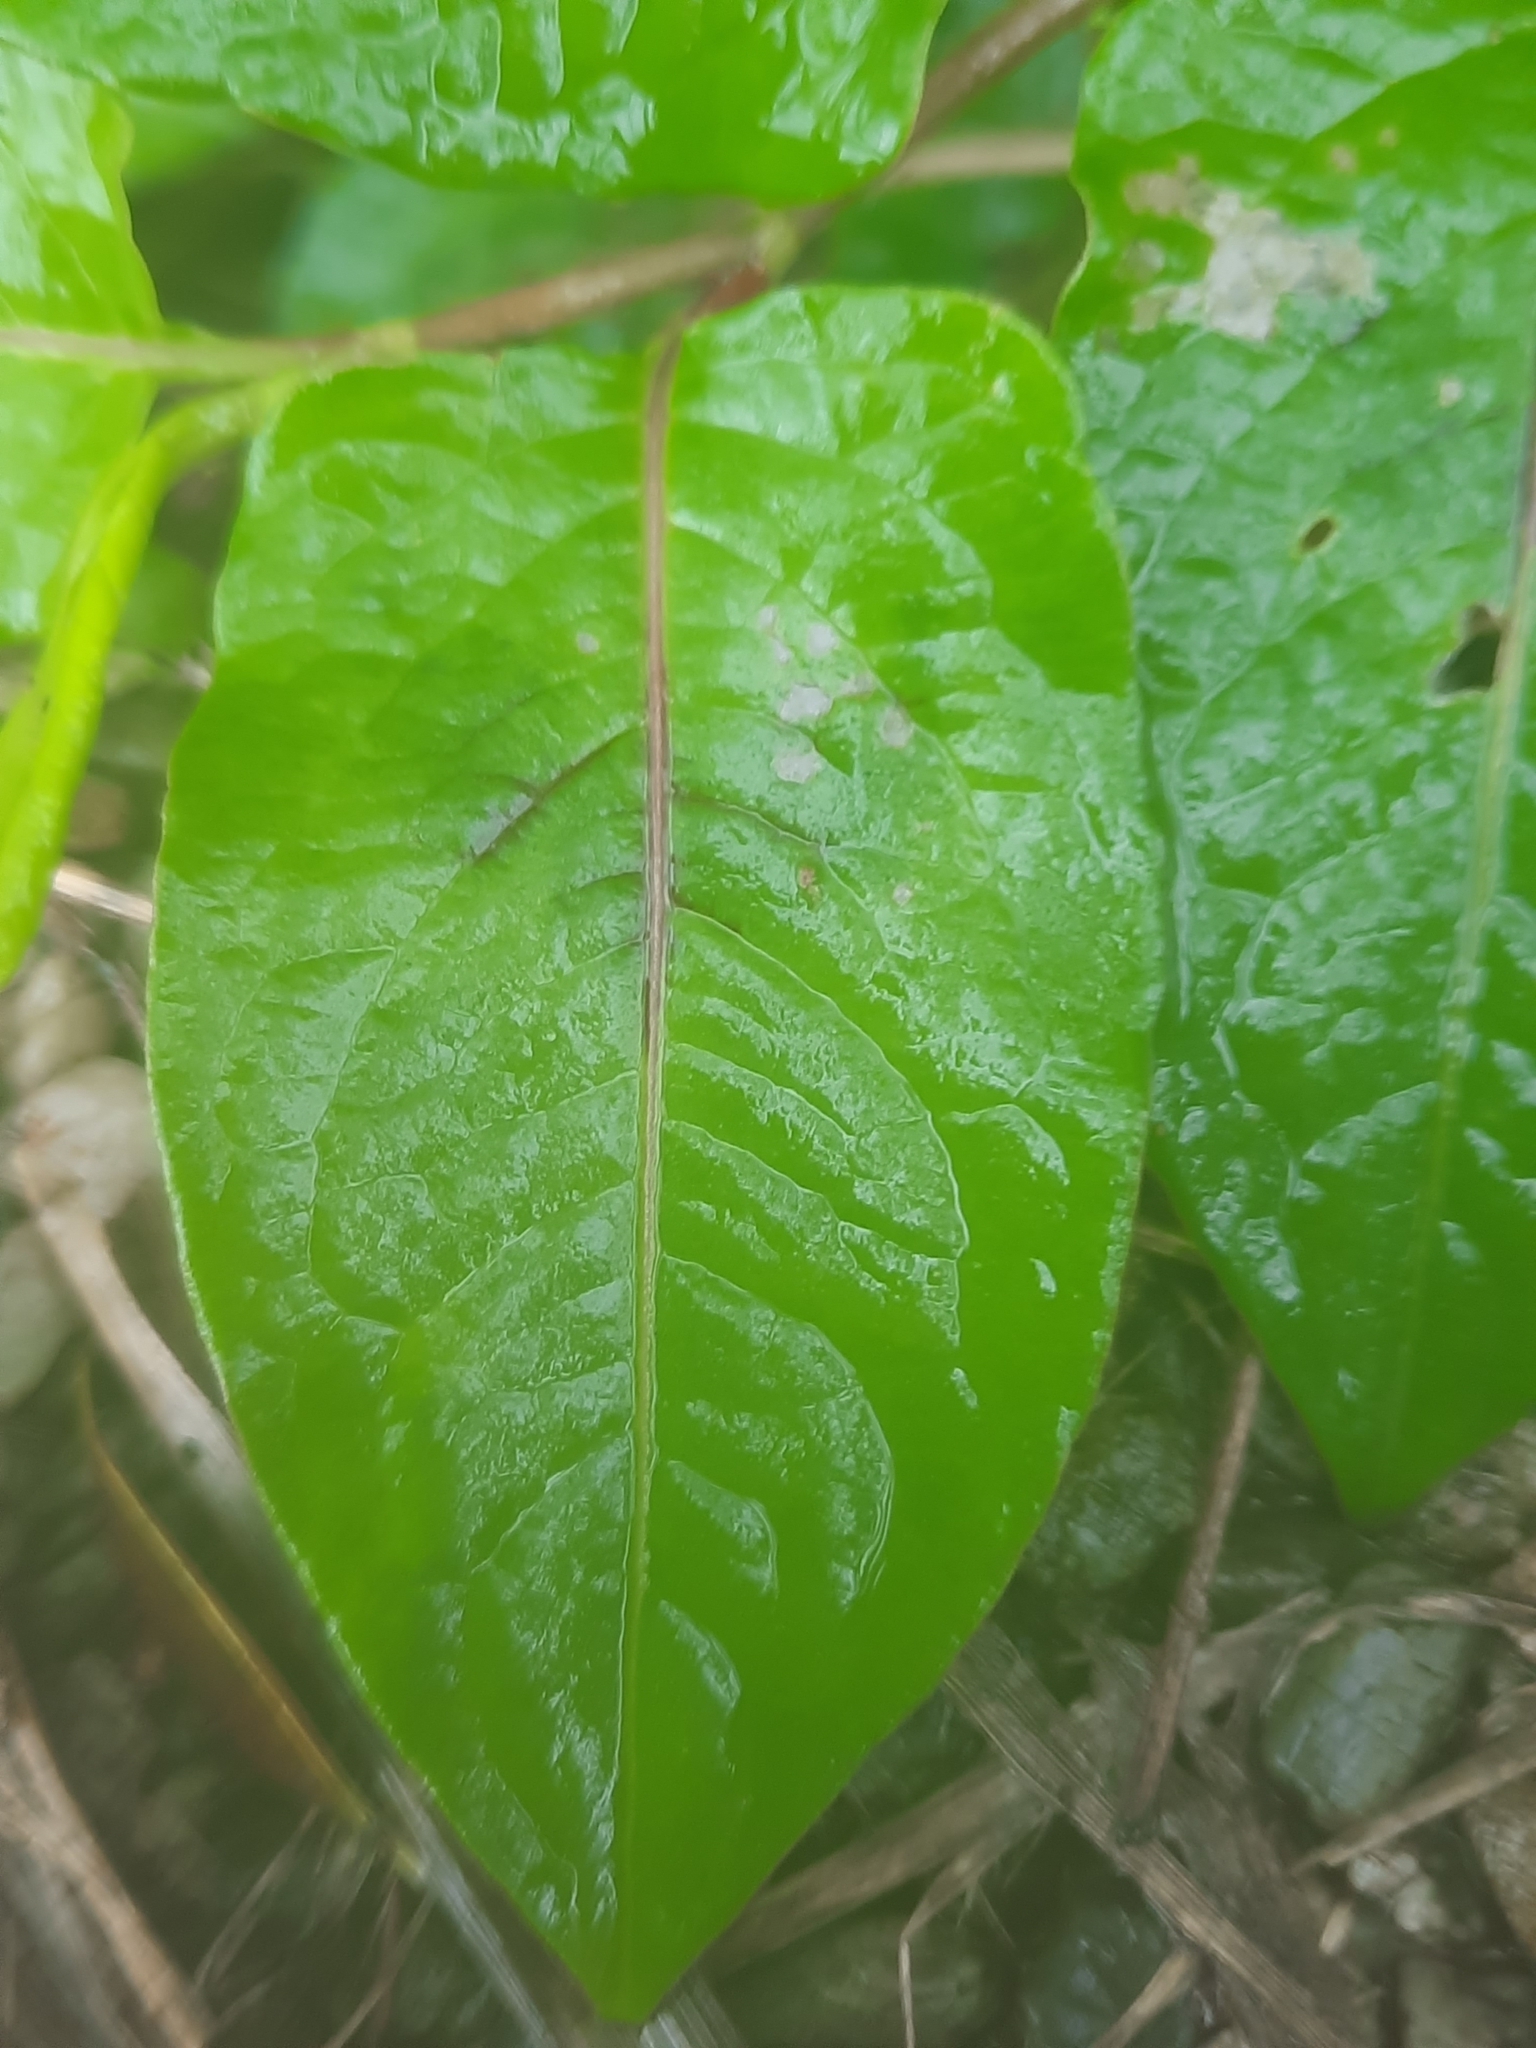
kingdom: Plantae
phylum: Tracheophyta
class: Magnoliopsida
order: Caryophyllales
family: Polygonaceae
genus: Persicaria
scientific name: Persicaria chinensis
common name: Chinese knotweed
